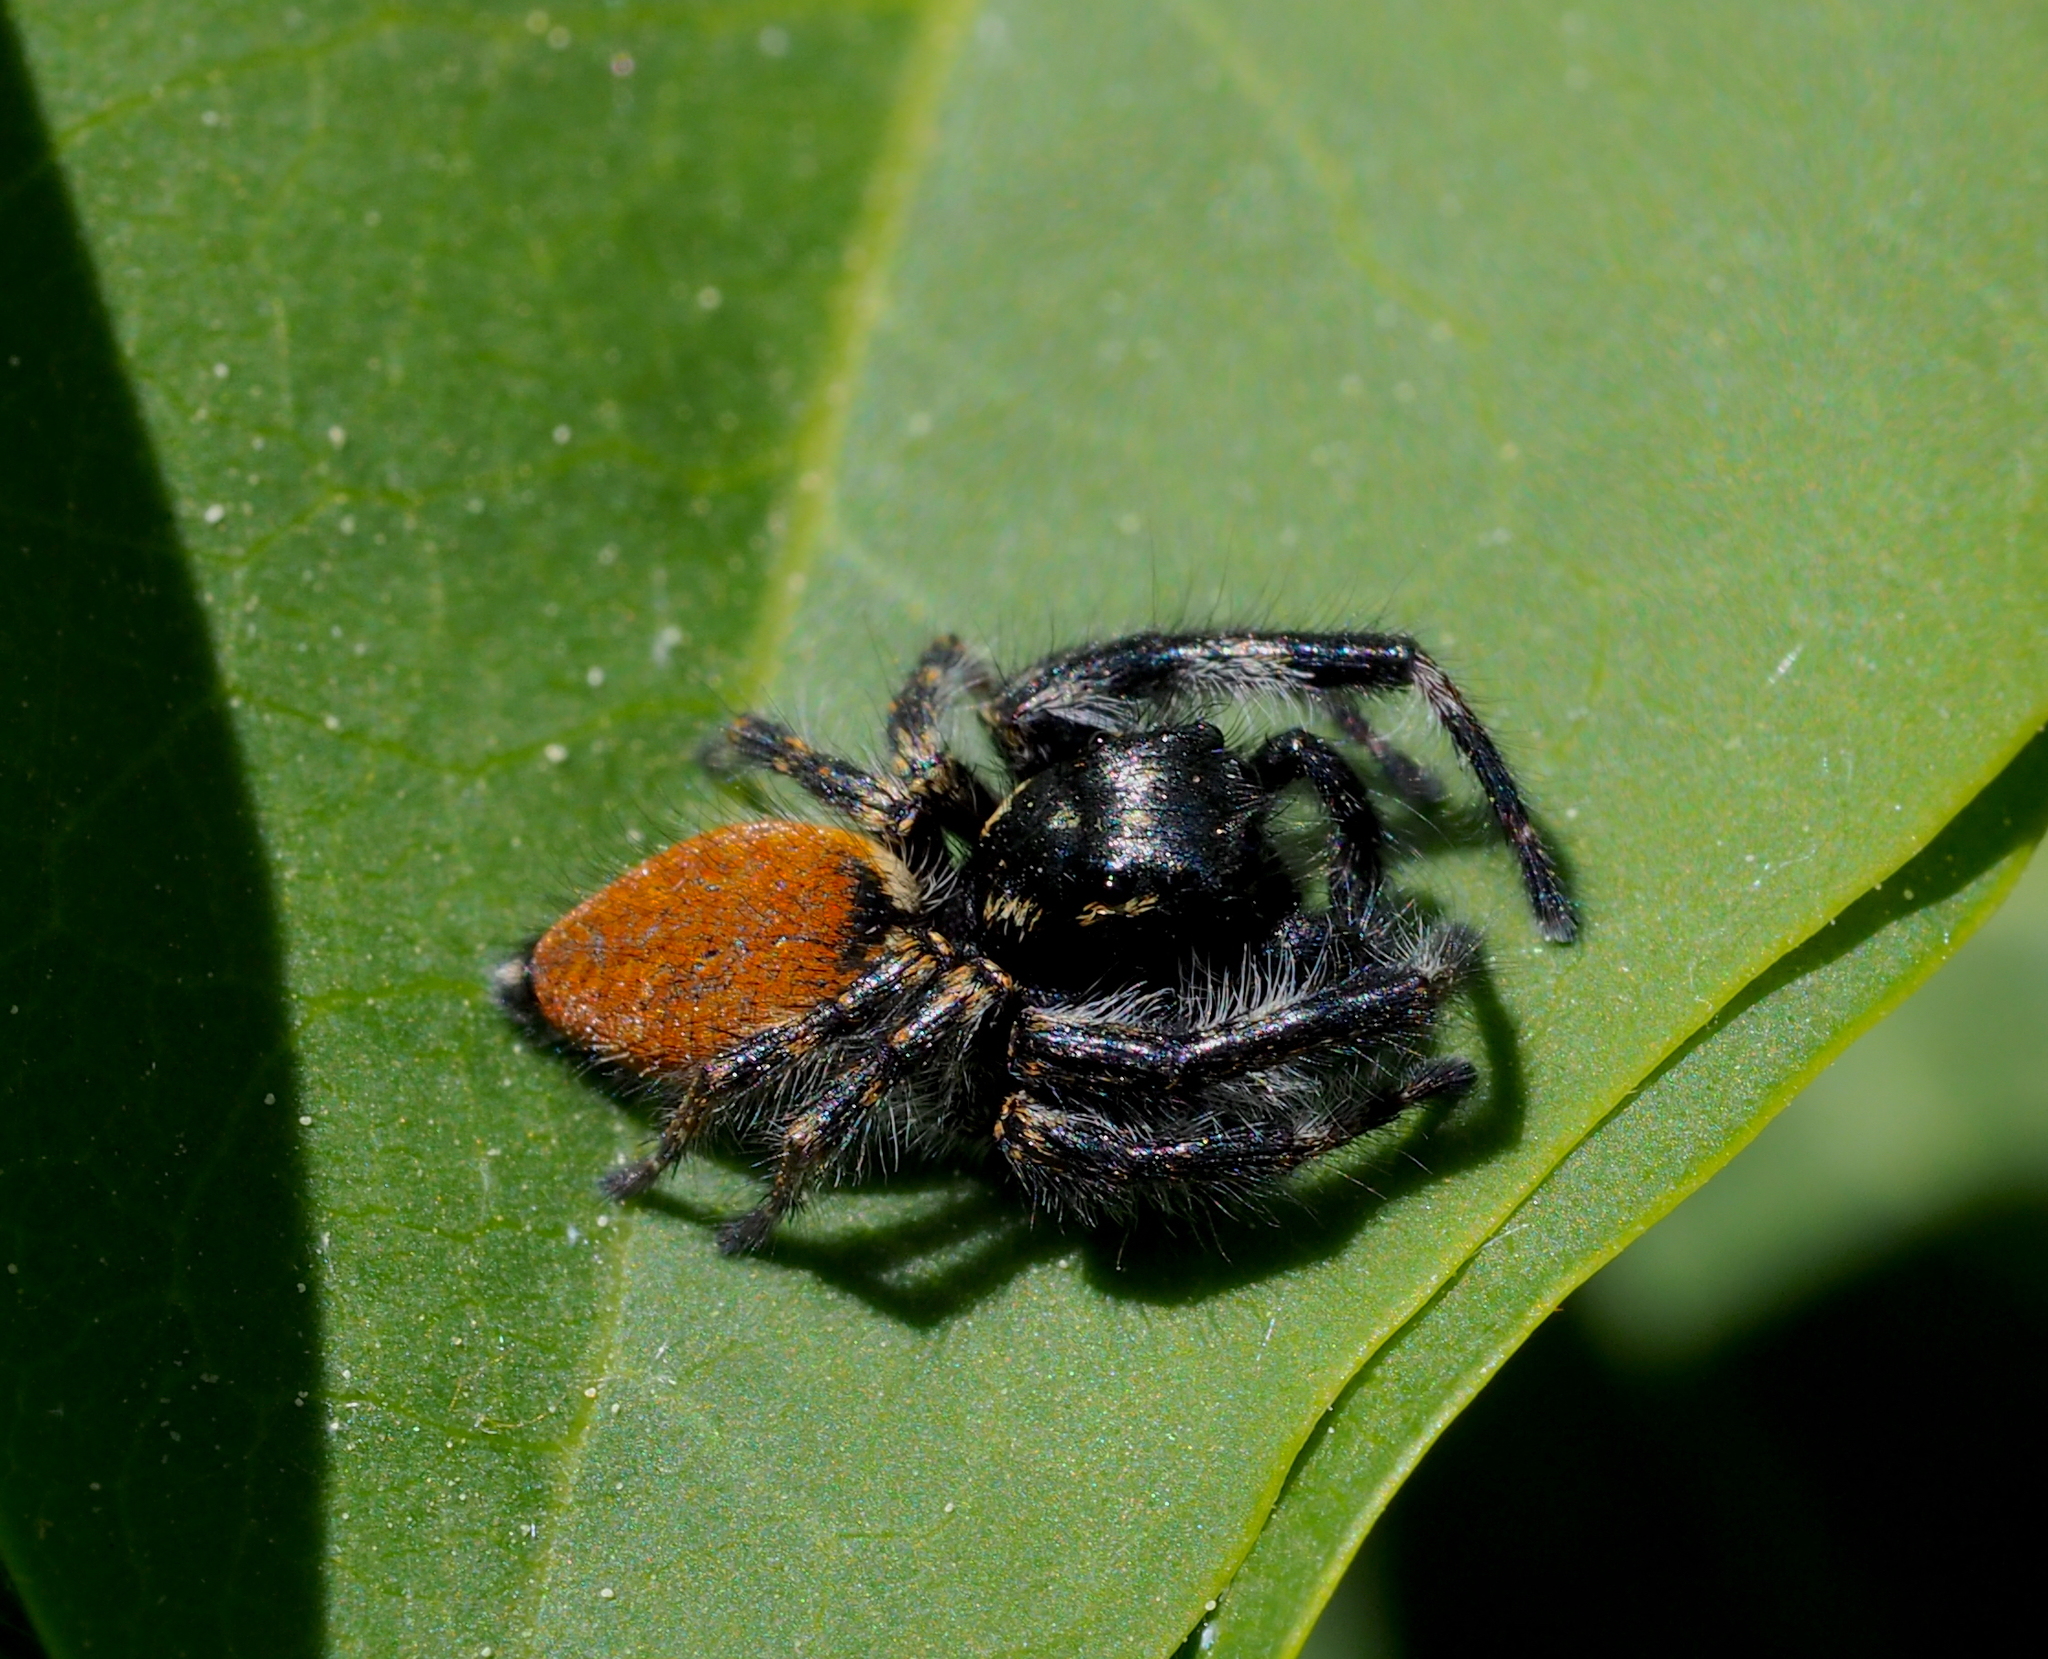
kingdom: Animalia
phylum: Arthropoda
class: Arachnida
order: Araneae
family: Salticidae
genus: Carrhotus
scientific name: Carrhotus xanthogramma
